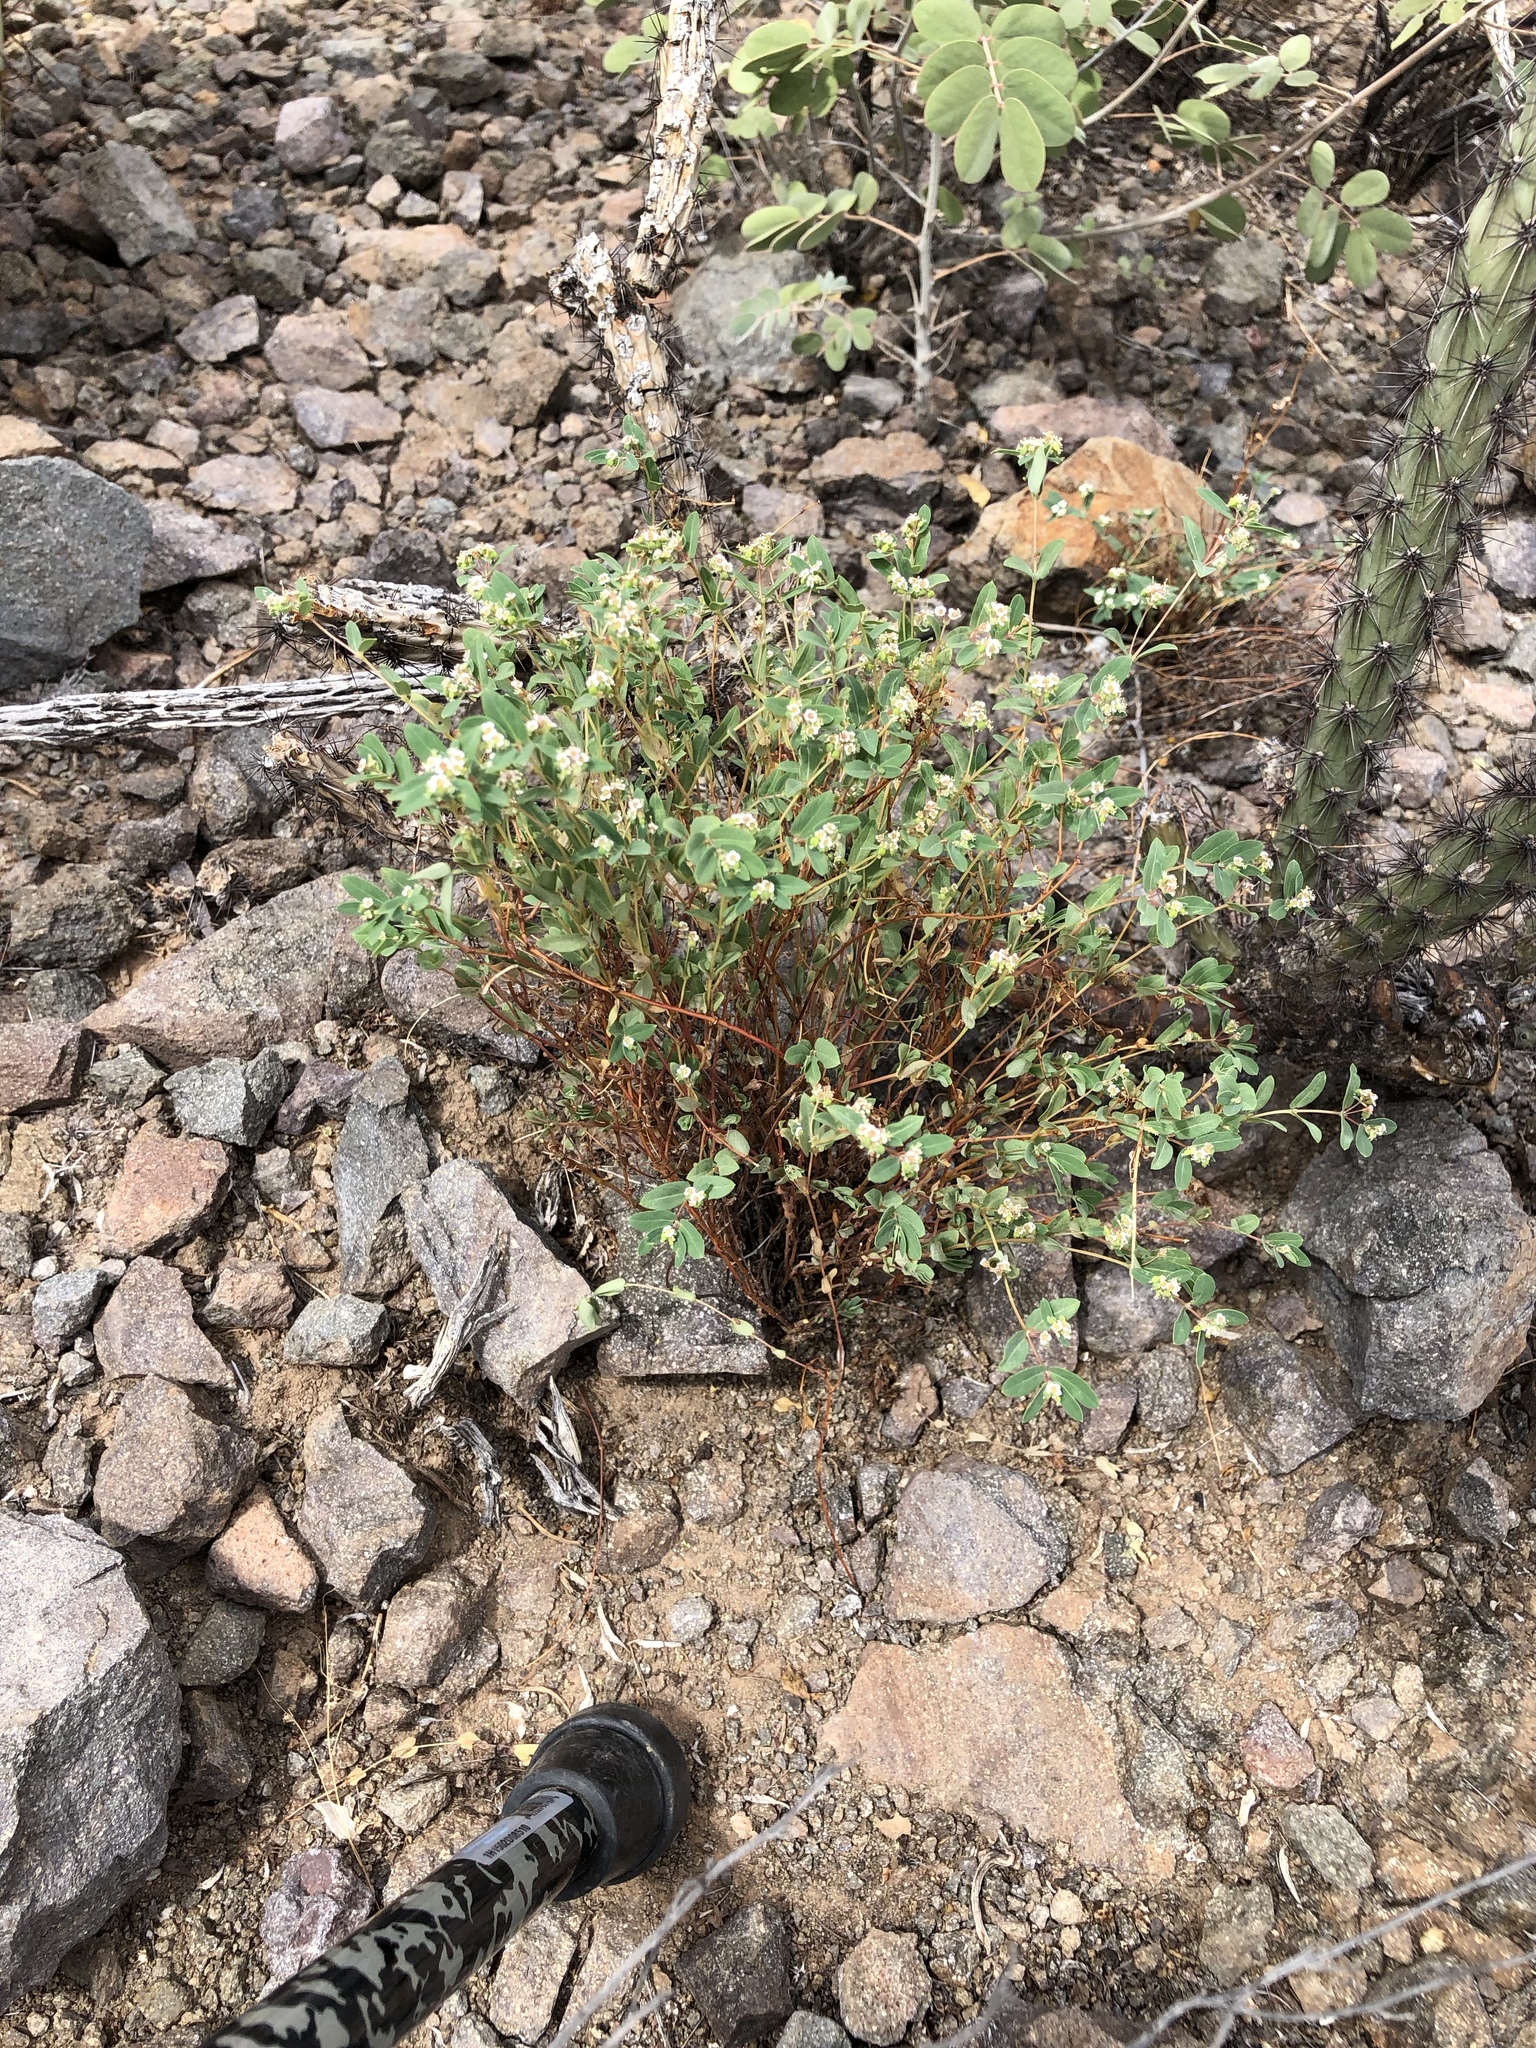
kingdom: Plantae
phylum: Tracheophyta
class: Magnoliopsida
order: Malpighiales
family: Euphorbiaceae
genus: Euphorbia
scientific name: Euphorbia capitellata
